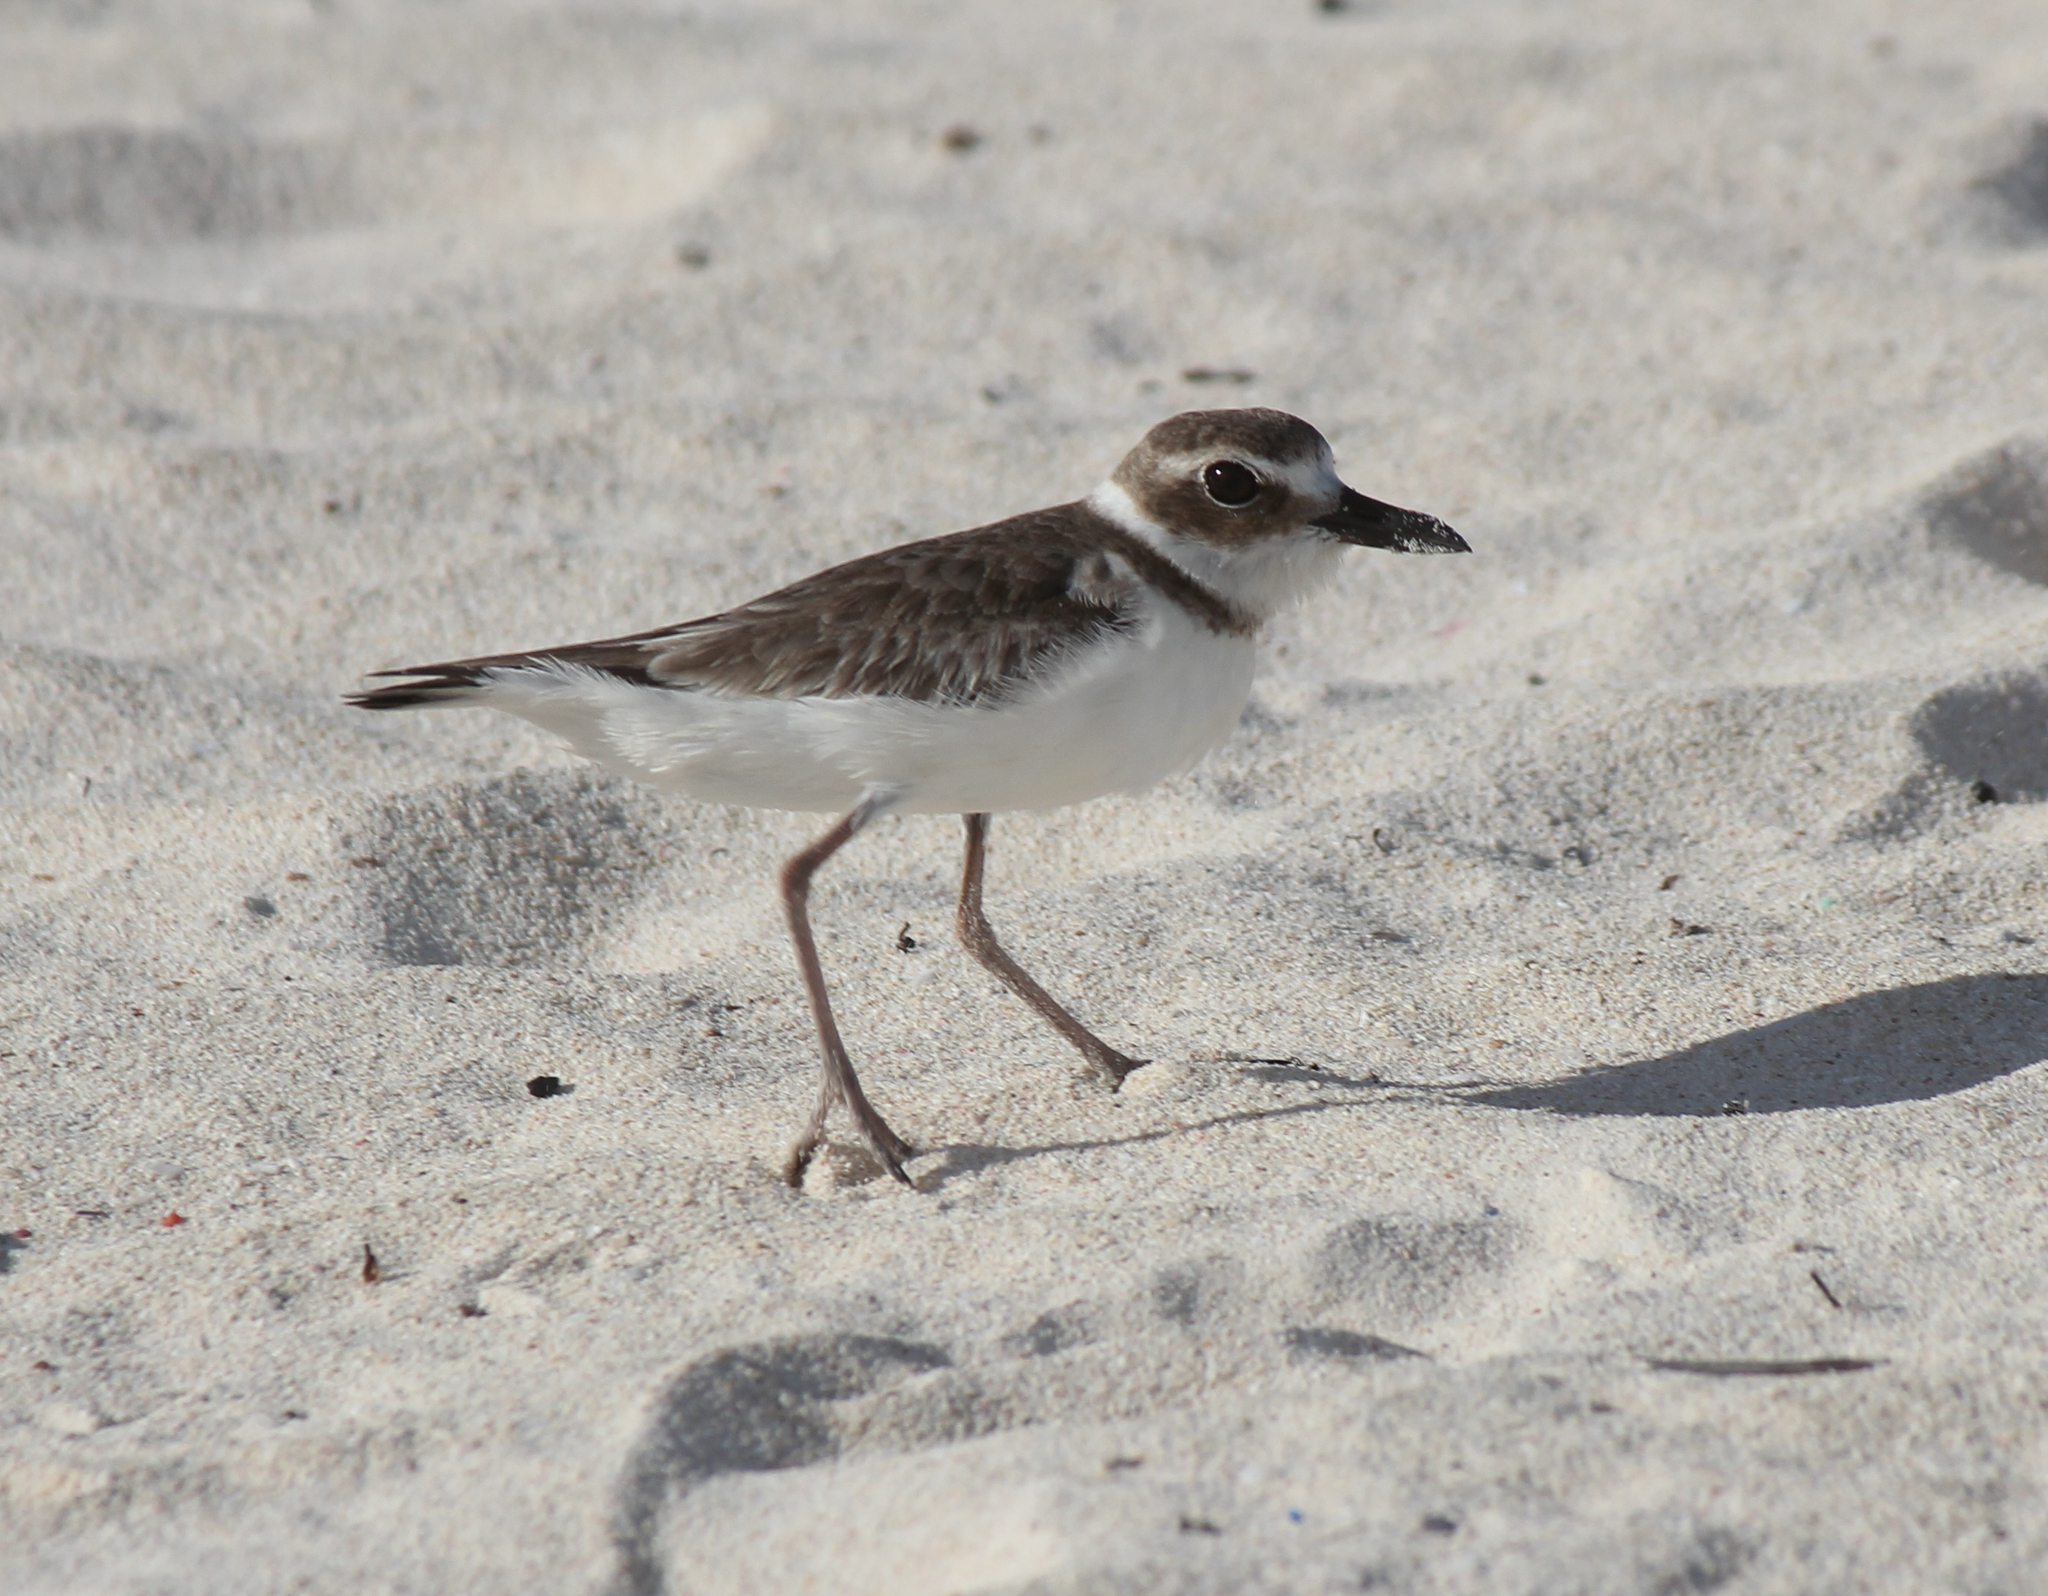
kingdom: Animalia
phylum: Chordata
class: Aves
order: Charadriiformes
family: Charadriidae
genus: Anarhynchus
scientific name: Anarhynchus
